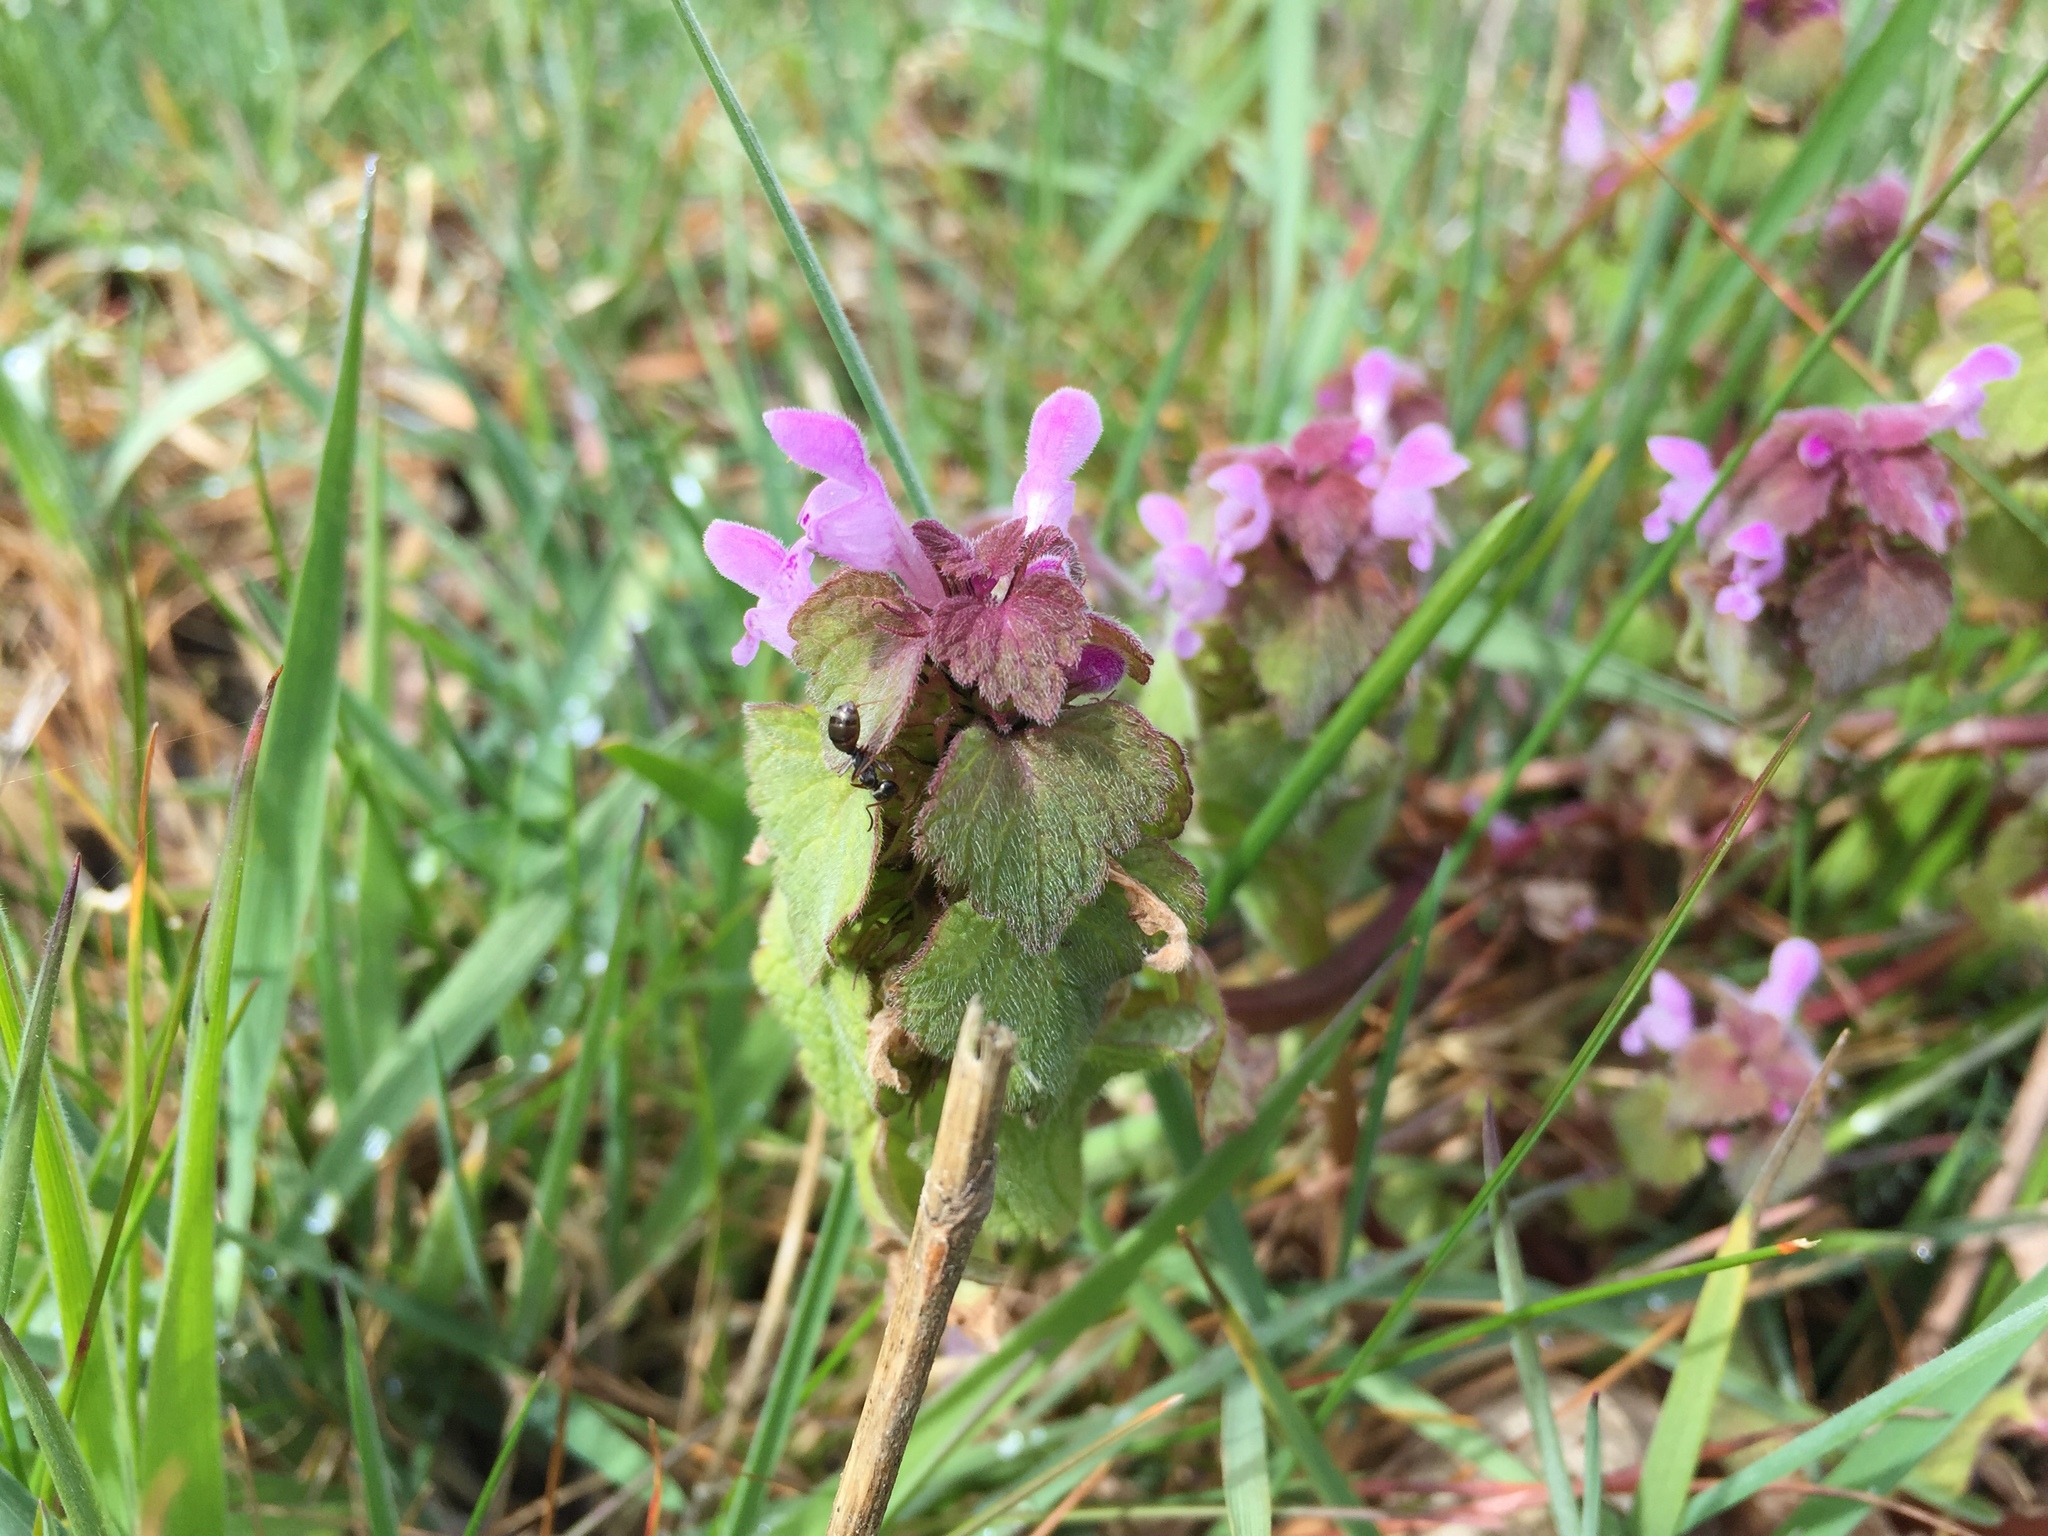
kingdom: Plantae
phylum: Tracheophyta
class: Magnoliopsida
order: Lamiales
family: Lamiaceae
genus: Lamium
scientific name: Lamium purpureum
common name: Red dead-nettle
